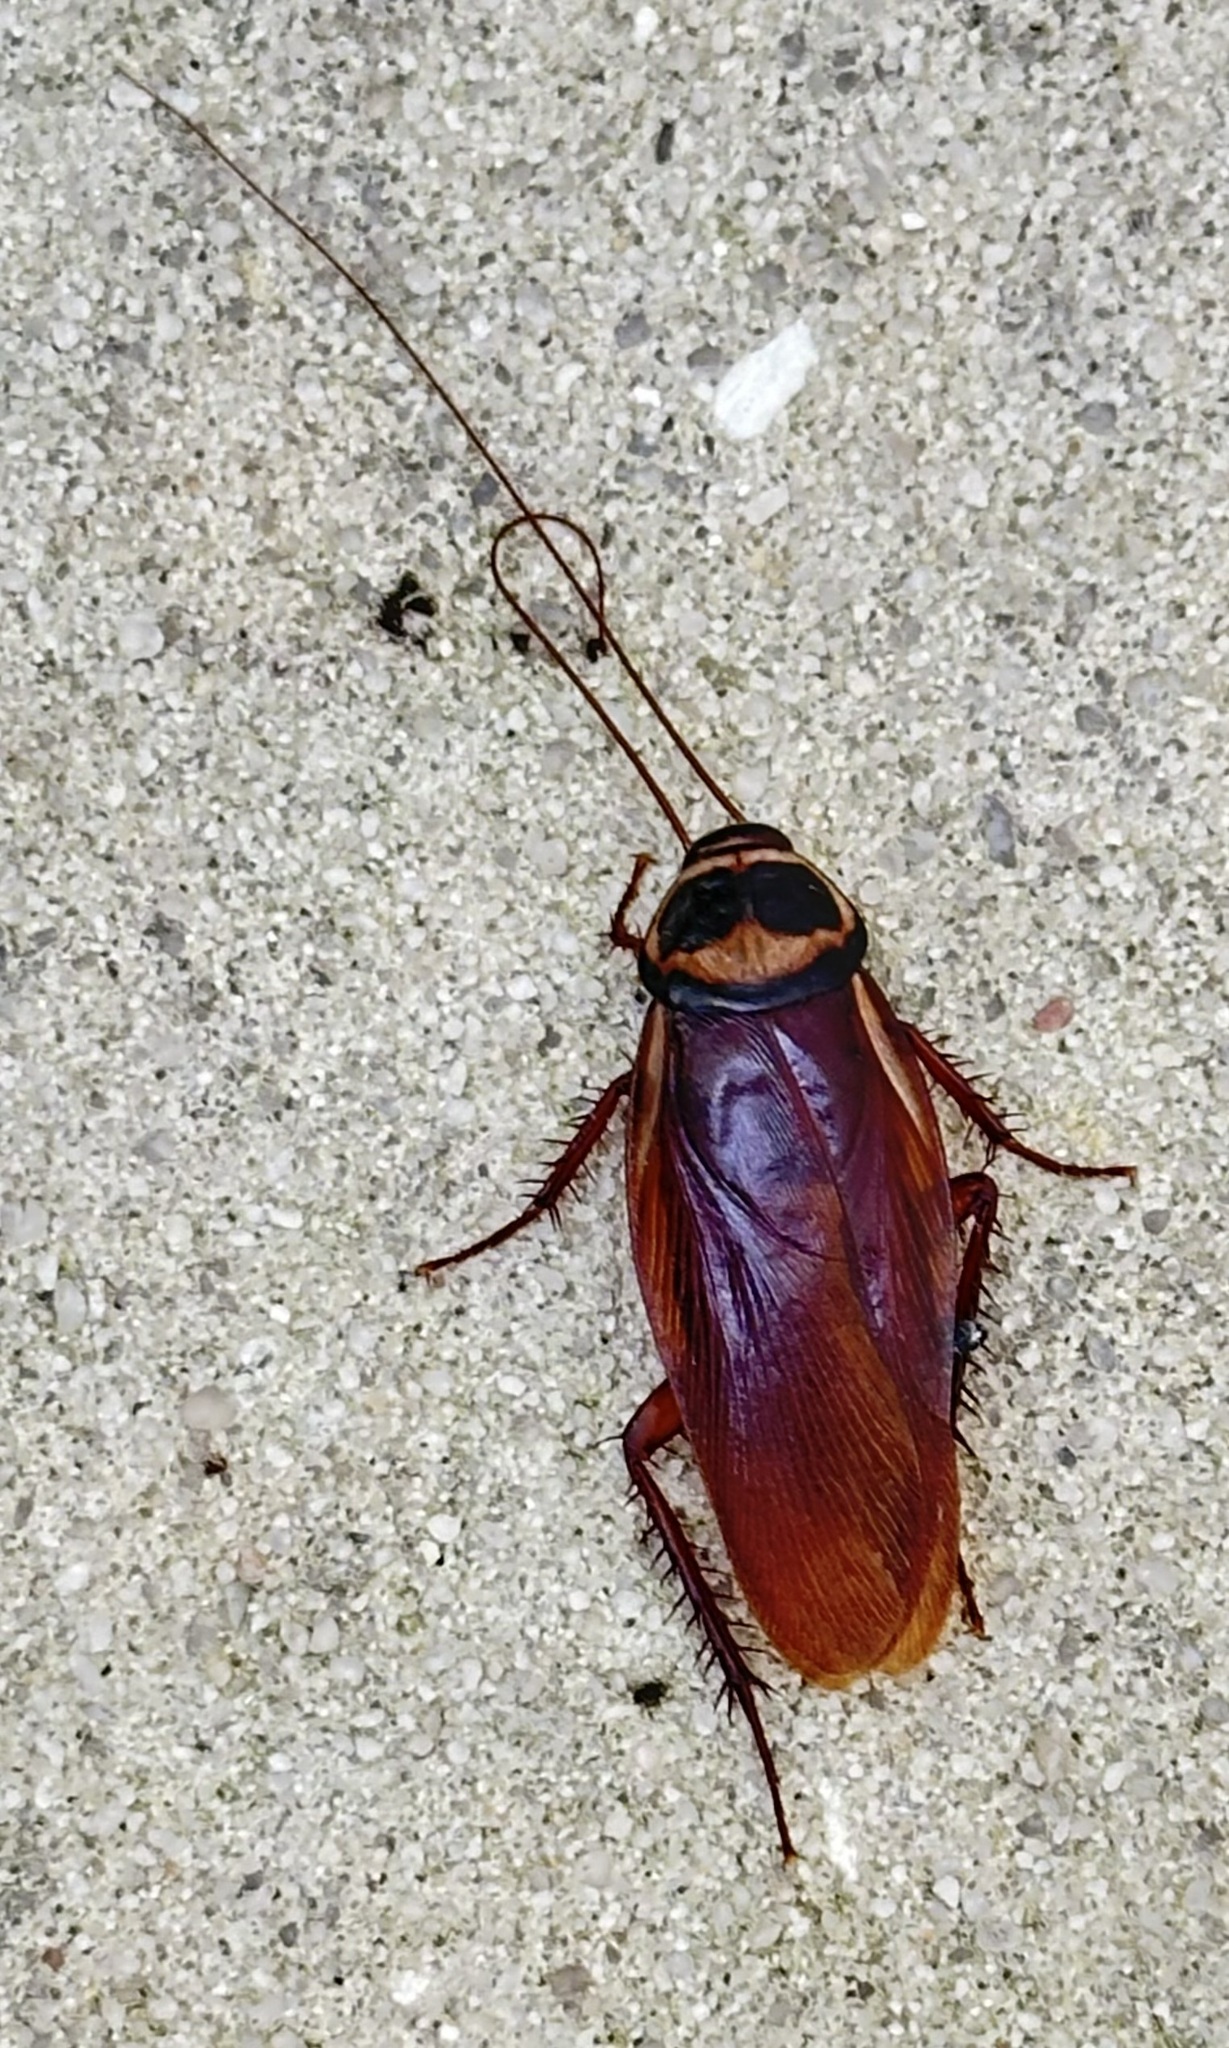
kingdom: Animalia
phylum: Arthropoda
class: Insecta
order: Blattodea
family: Blattidae
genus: Periplaneta
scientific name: Periplaneta australasiae
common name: Australian cockroach
